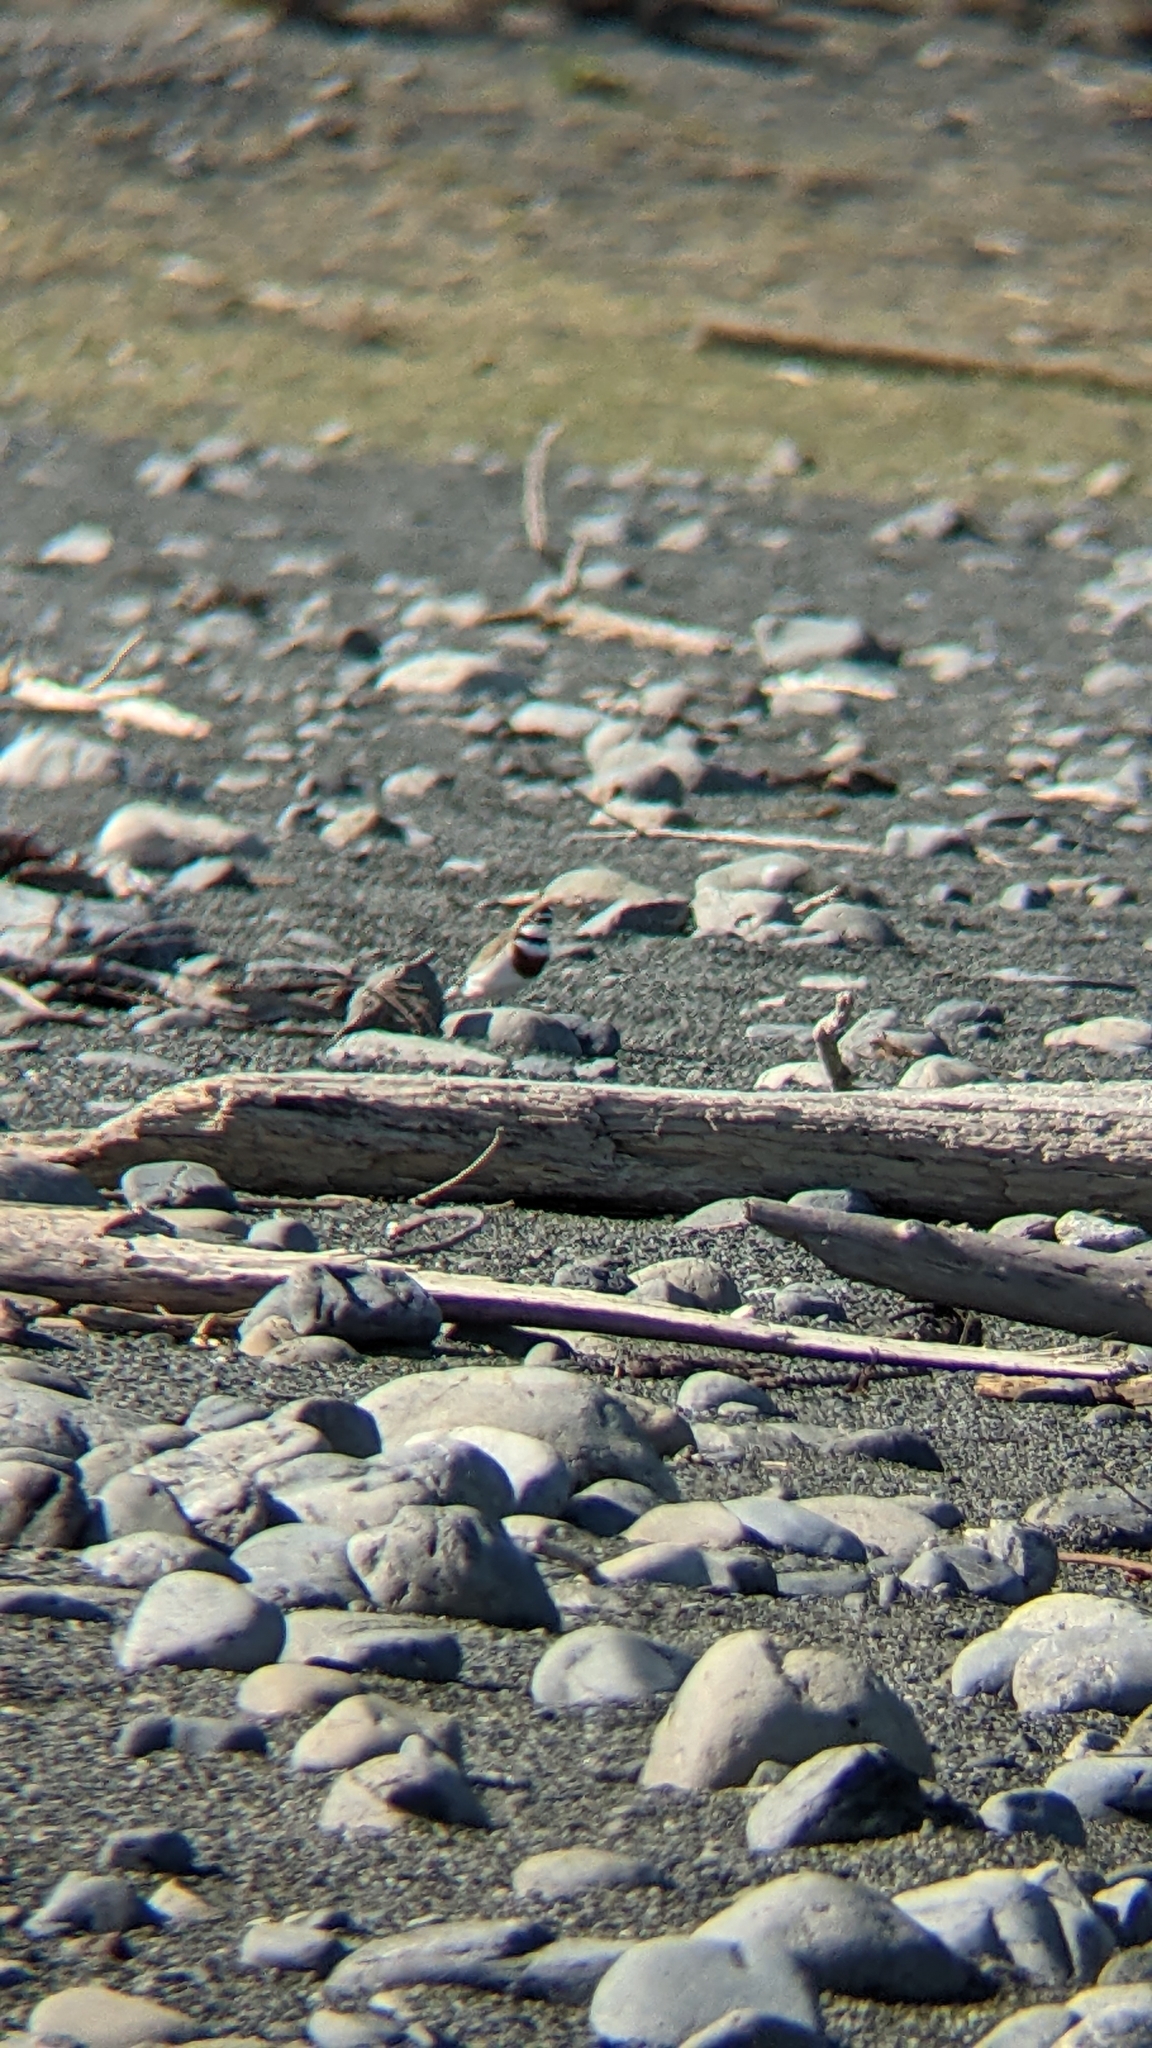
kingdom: Animalia
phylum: Chordata
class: Aves
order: Charadriiformes
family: Charadriidae
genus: Anarhynchus
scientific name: Anarhynchus
